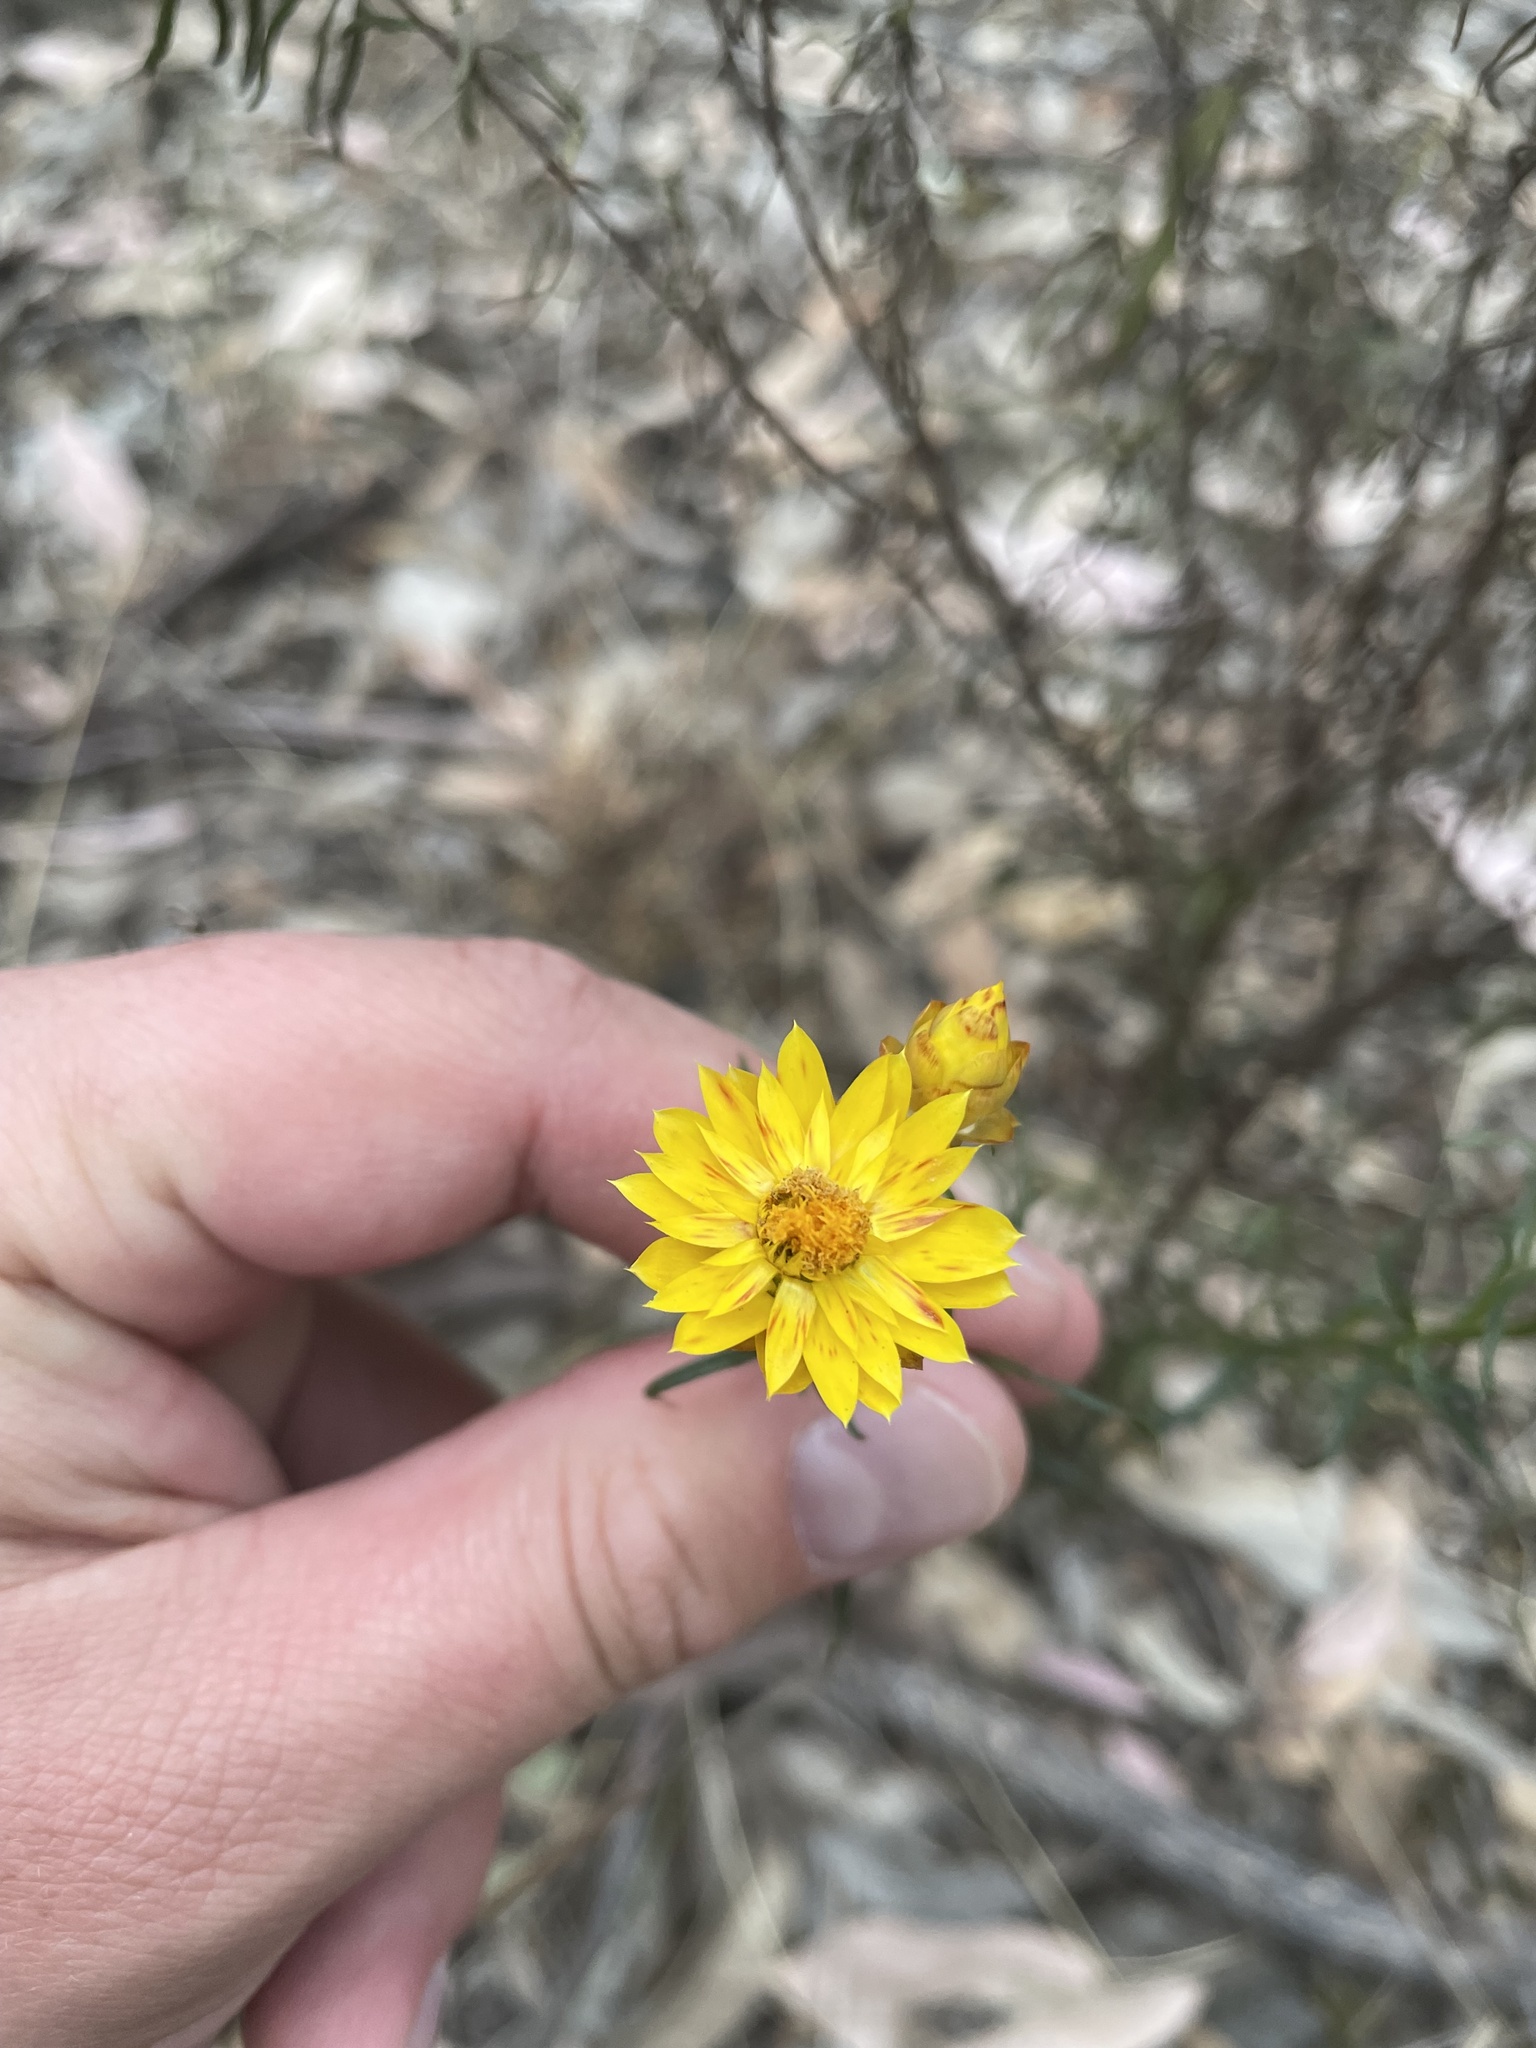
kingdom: Plantae
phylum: Tracheophyta
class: Magnoliopsida
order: Asterales
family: Asteraceae
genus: Xerochrysum
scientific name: Xerochrysum viscosum
